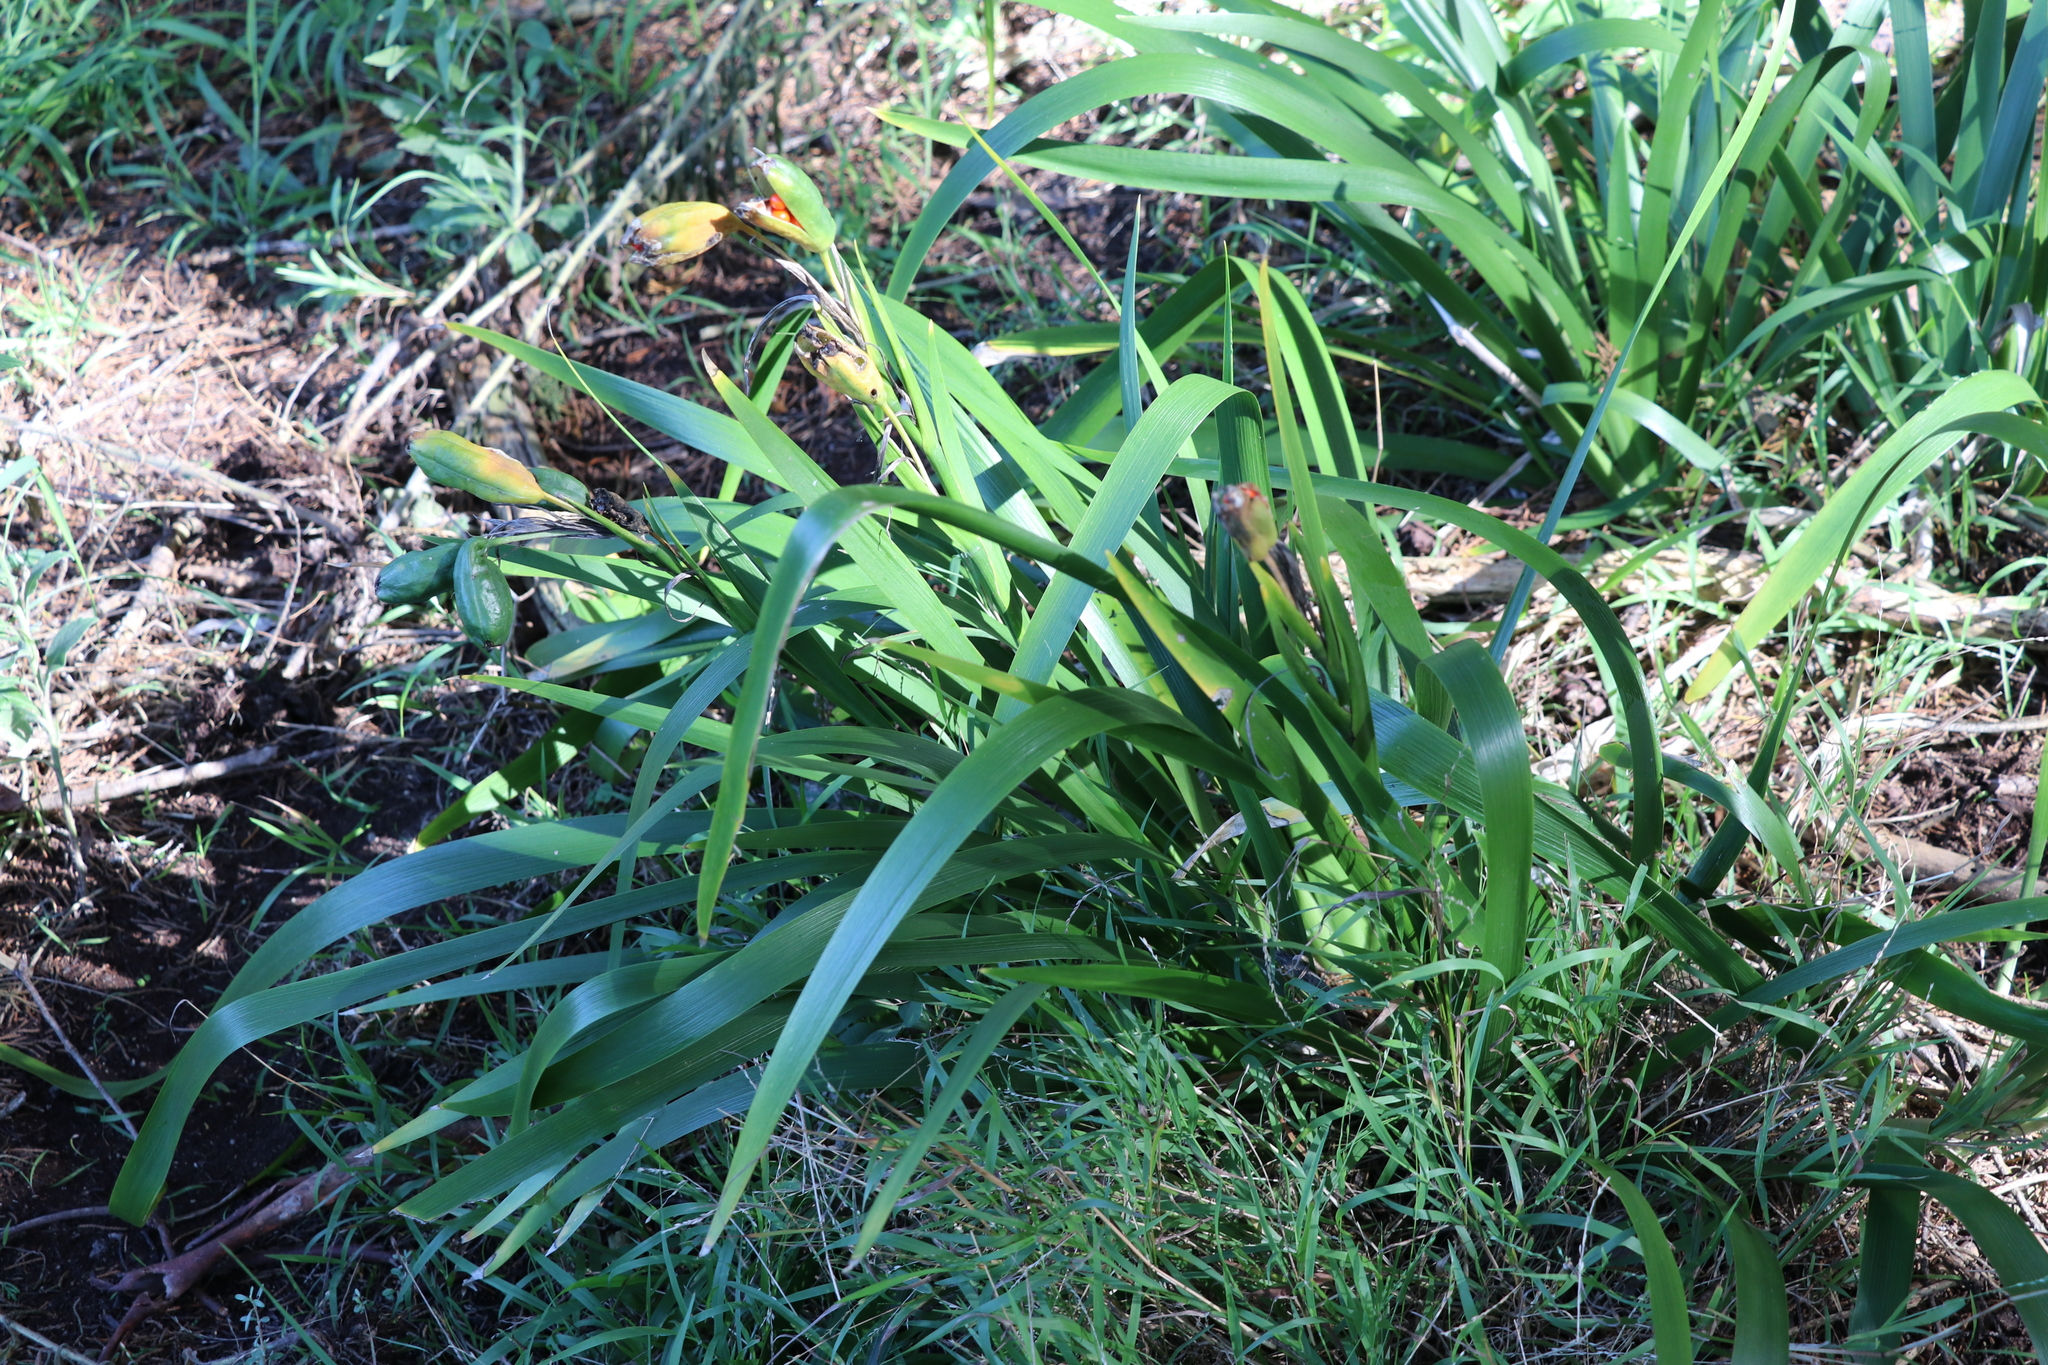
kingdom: Plantae
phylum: Tracheophyta
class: Liliopsida
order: Asparagales
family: Iridaceae
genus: Iris
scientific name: Iris foetidissima
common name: Stinking iris
